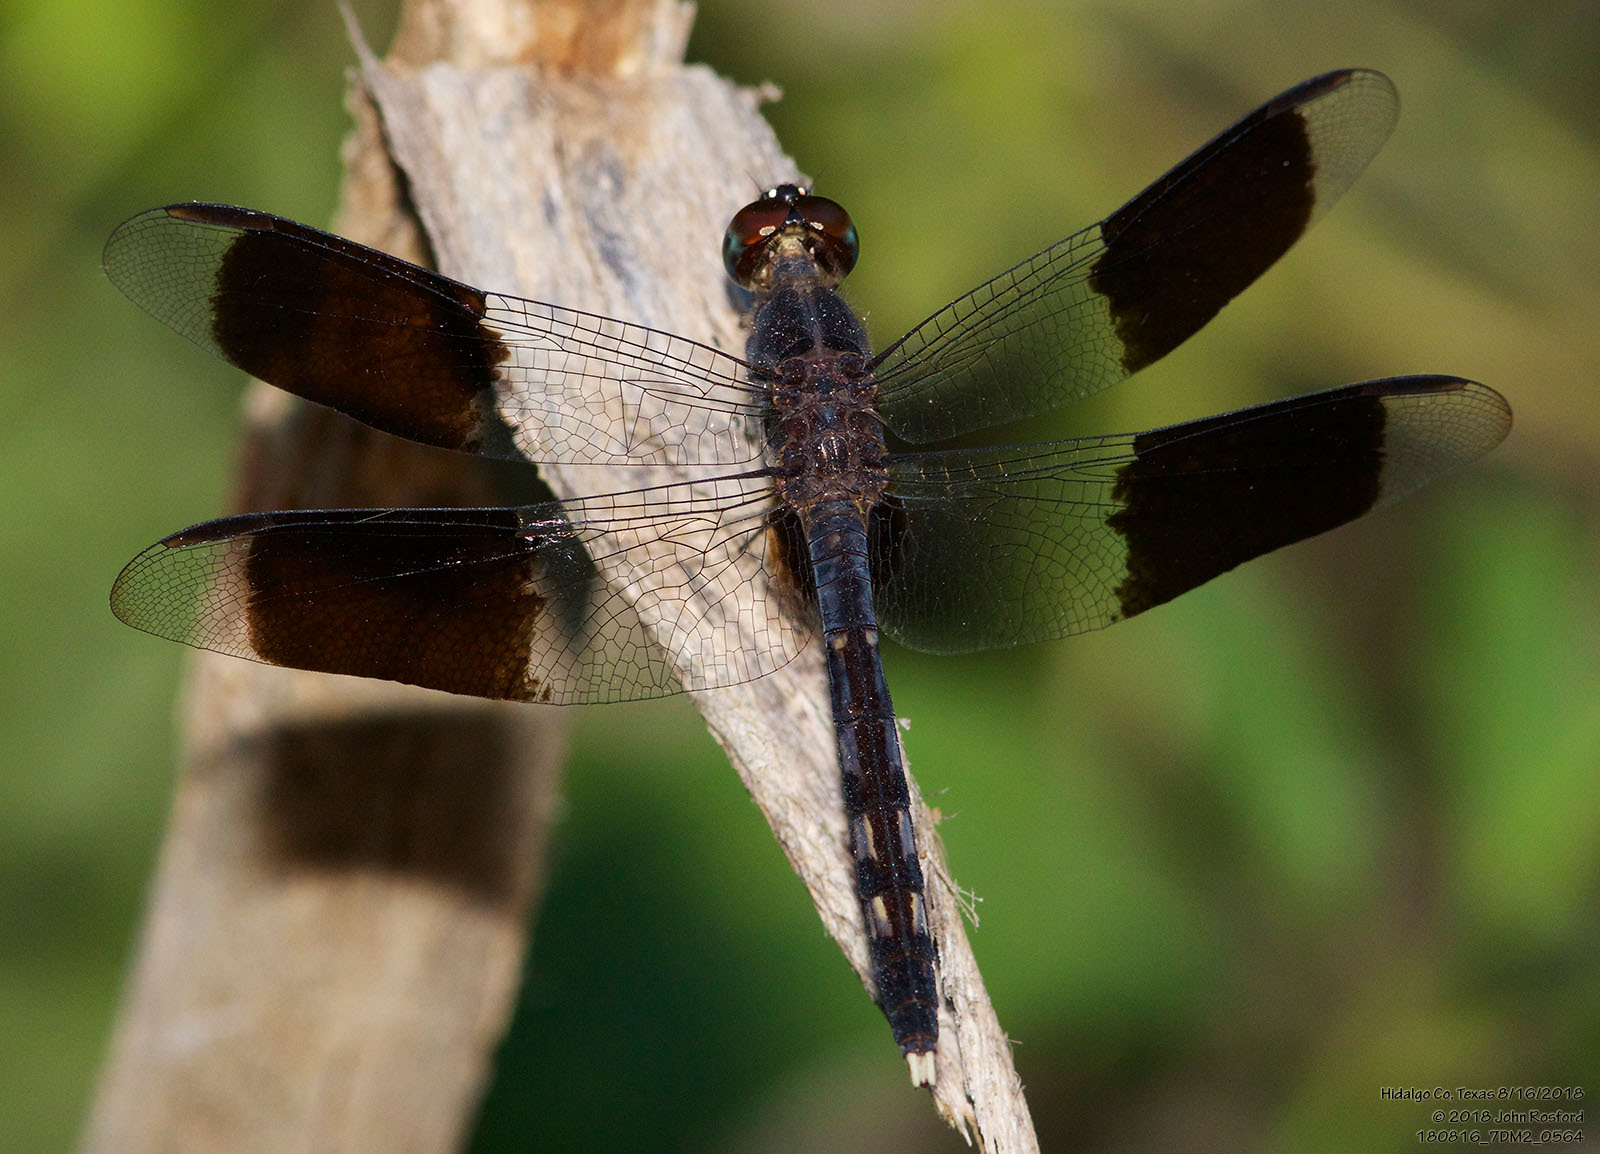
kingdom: Animalia
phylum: Arthropoda
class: Insecta
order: Odonata
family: Libellulidae
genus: Erythrodiplax
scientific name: Erythrodiplax umbrata
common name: Band-winged dragonlet
